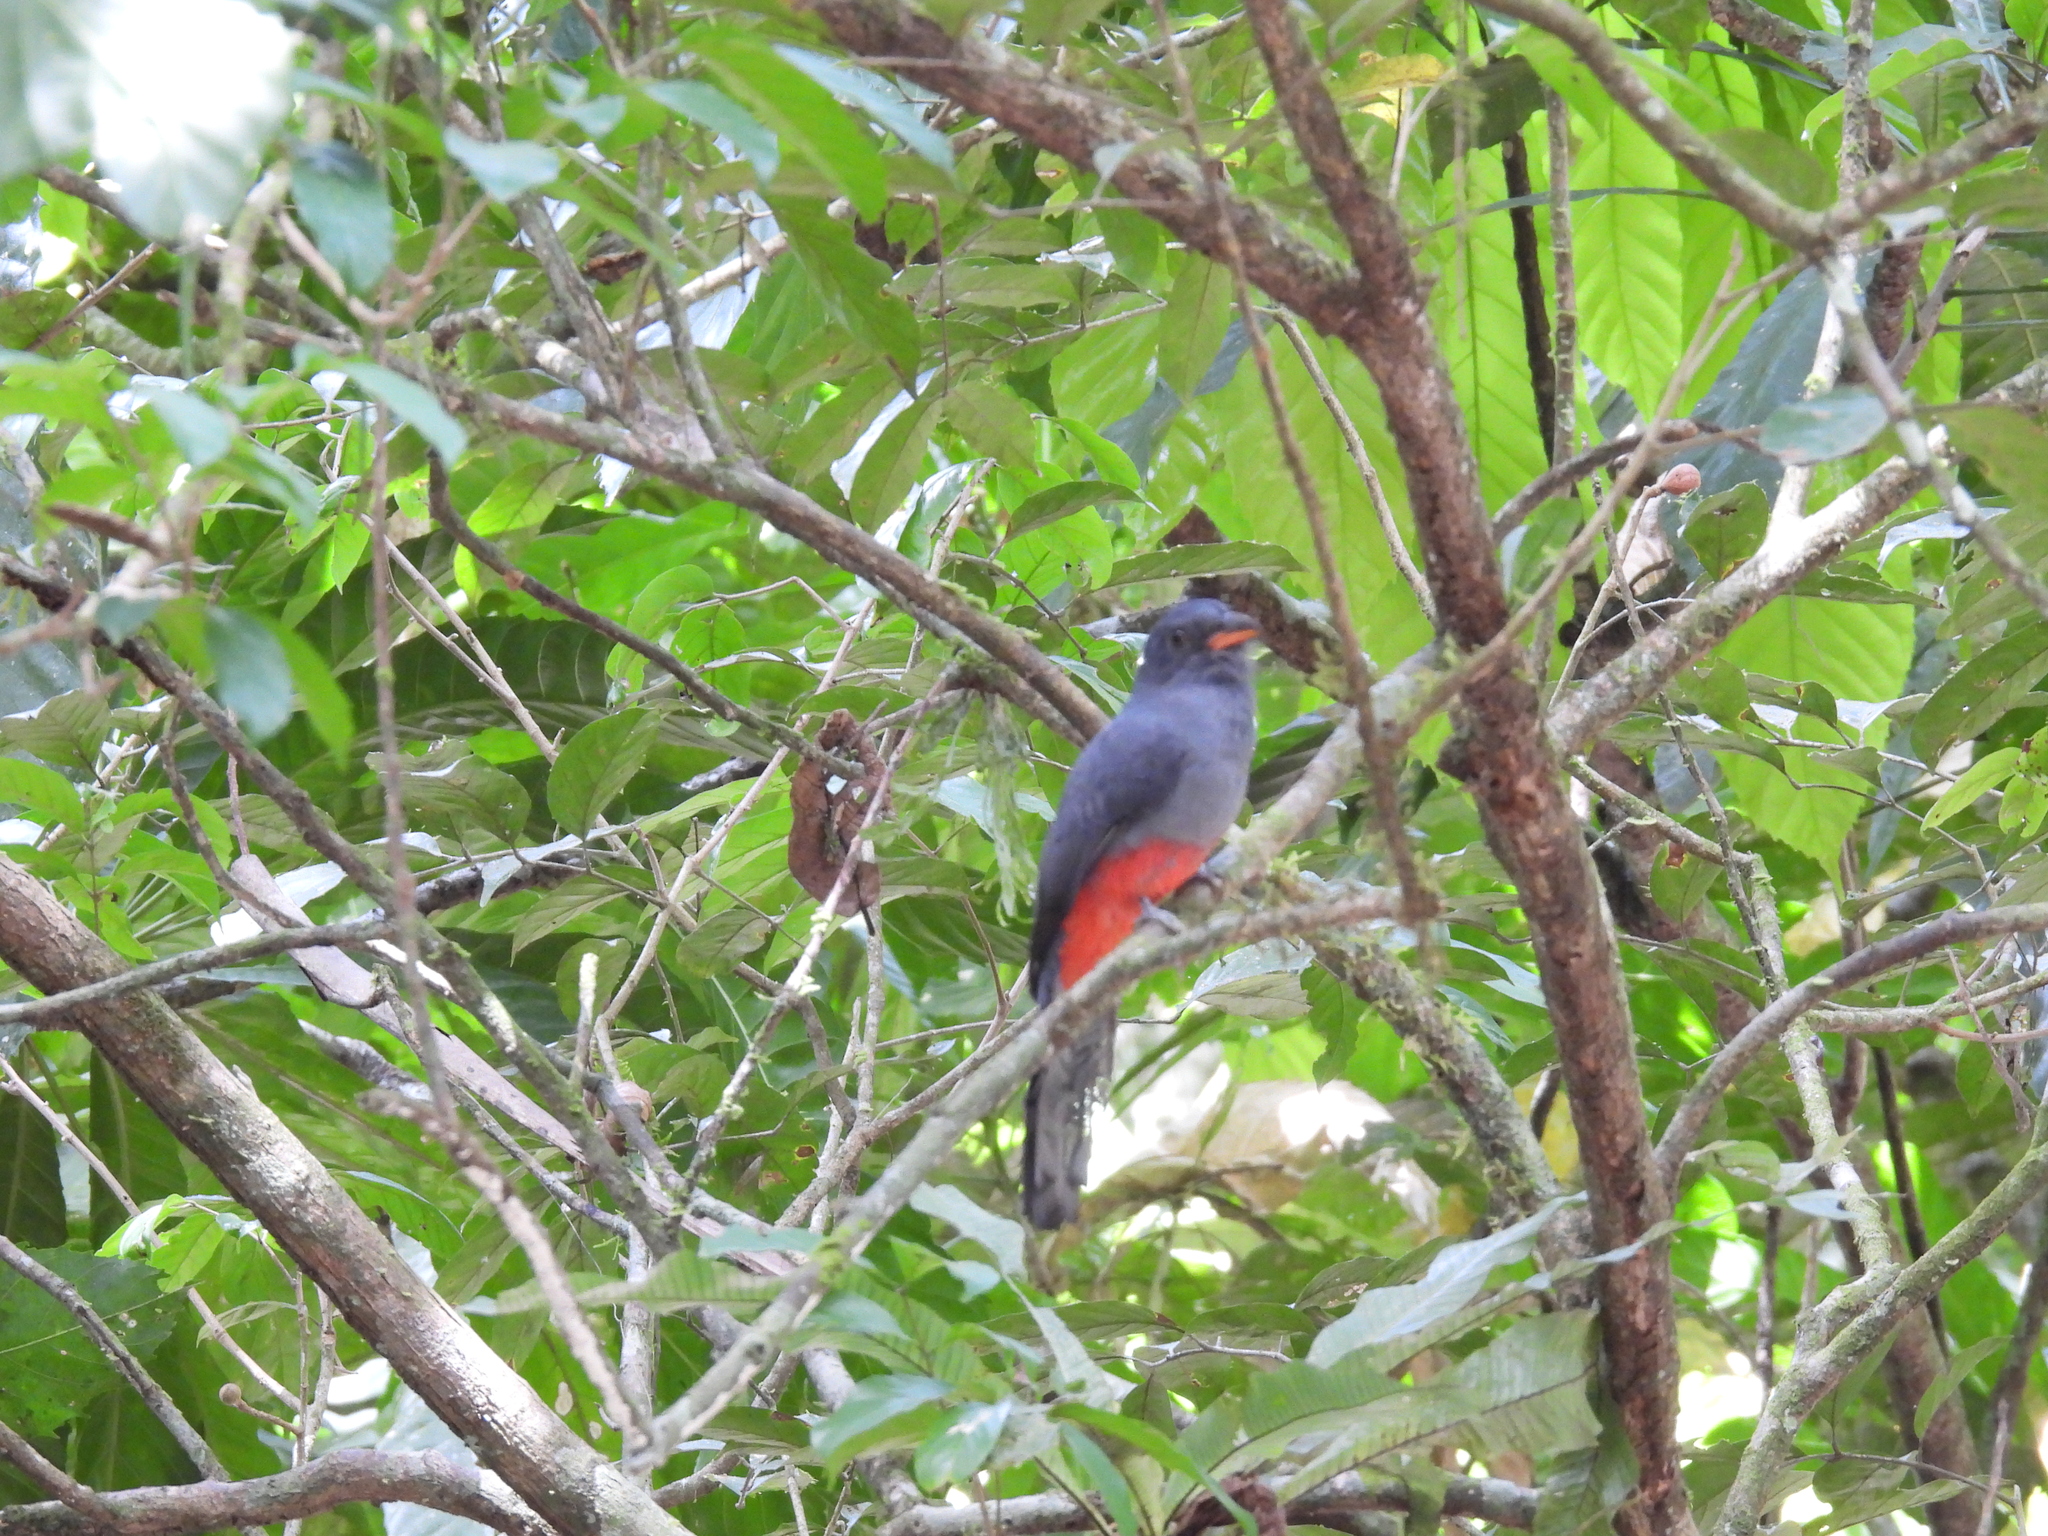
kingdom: Animalia
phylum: Chordata
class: Aves
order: Trogoniformes
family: Trogonidae
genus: Trogon
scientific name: Trogon massena
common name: Slaty-tailed trogon
